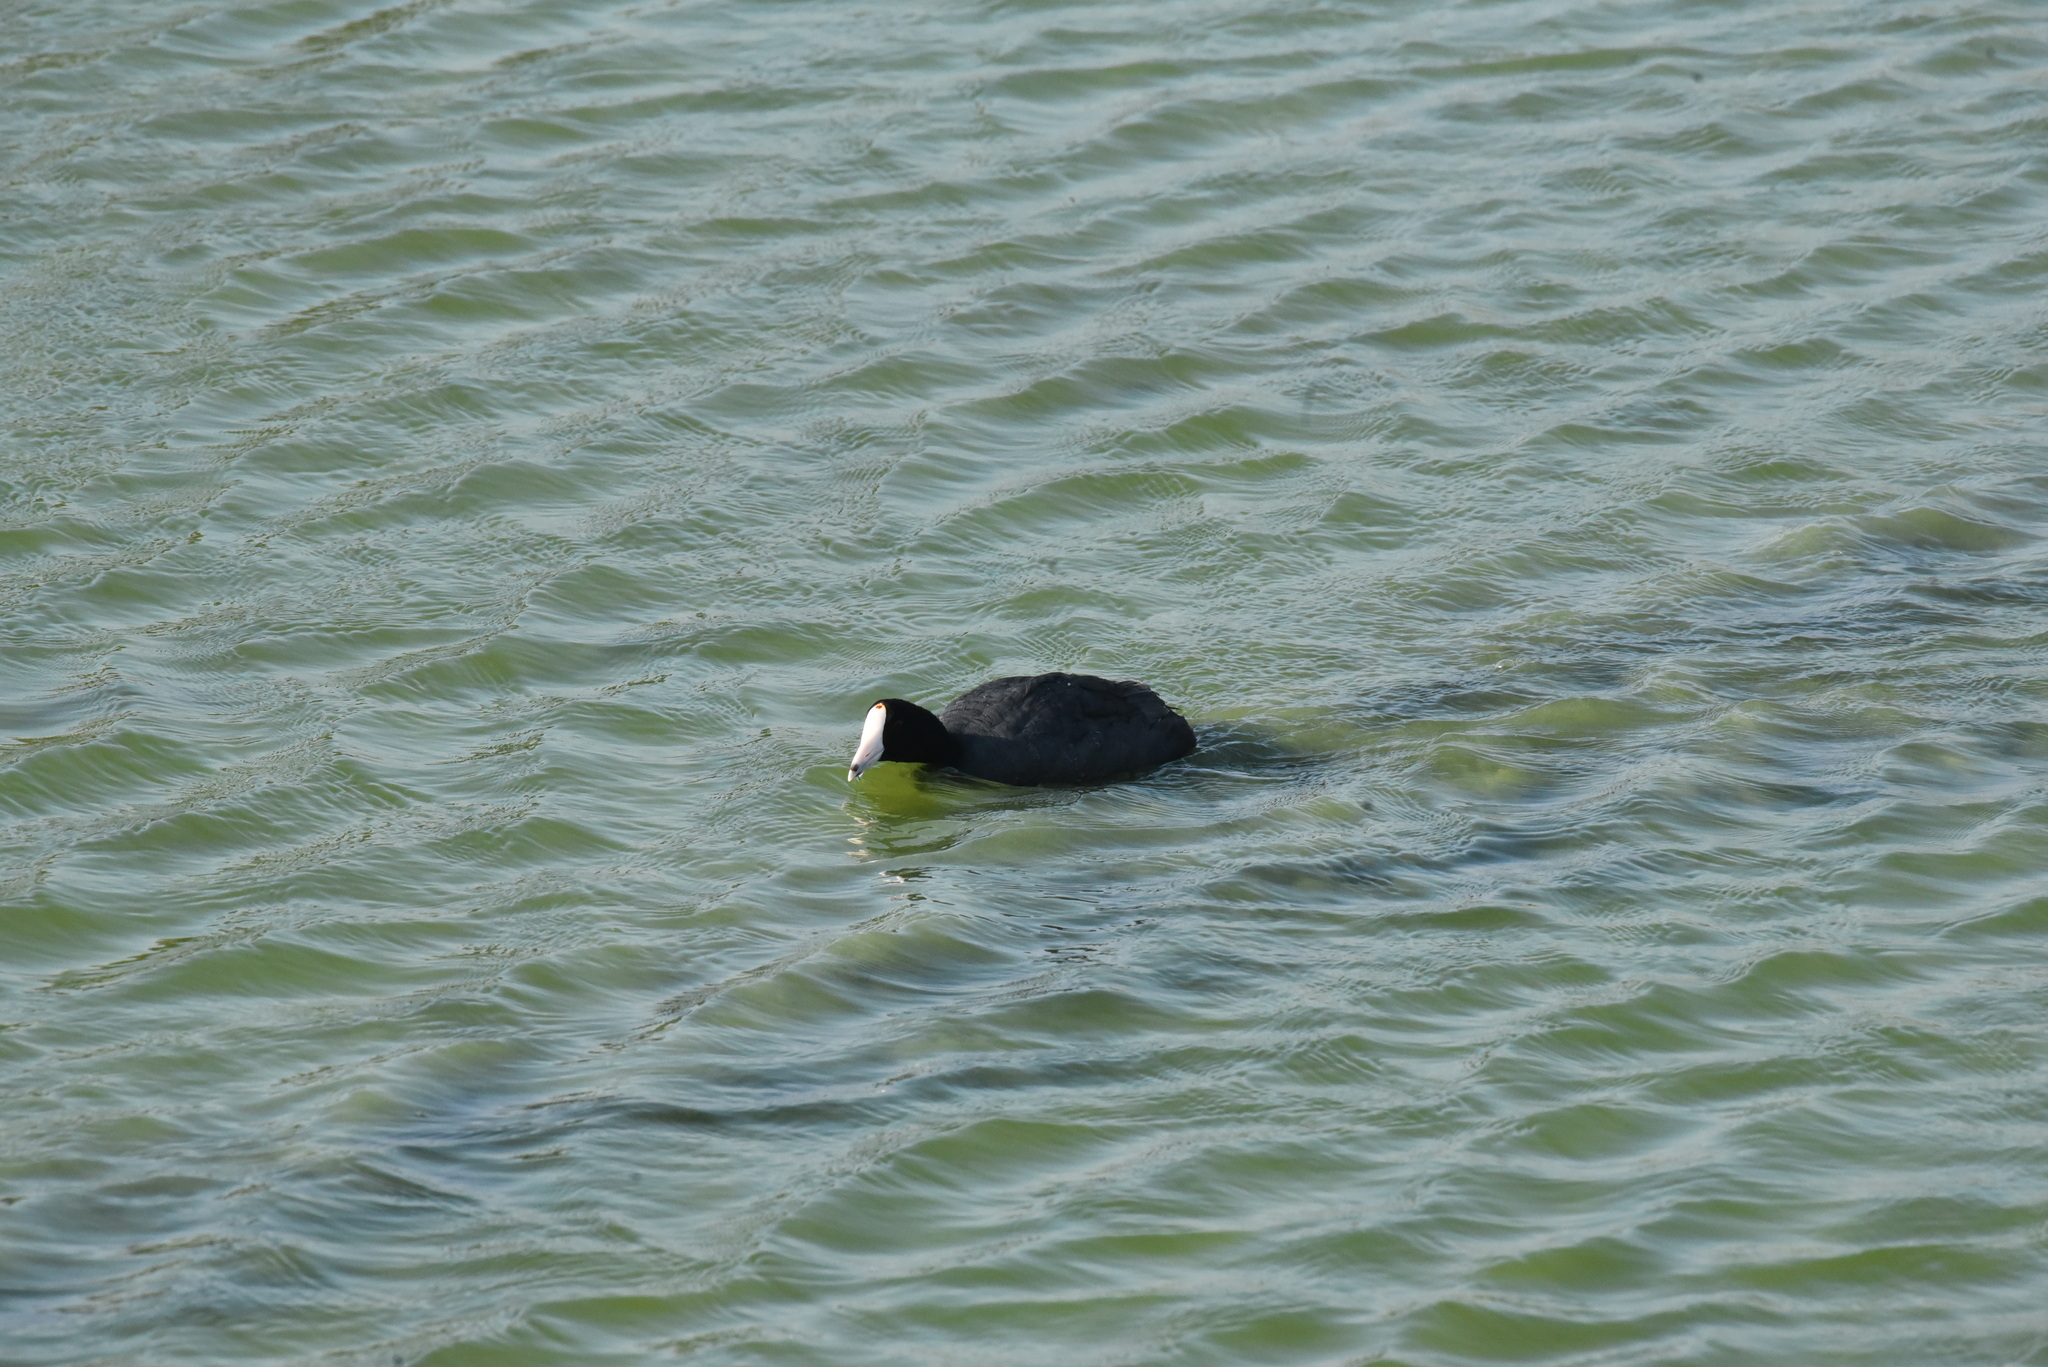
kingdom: Animalia
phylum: Chordata
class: Aves
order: Gruiformes
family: Rallidae
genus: Fulica
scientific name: Fulica americana
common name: American coot
